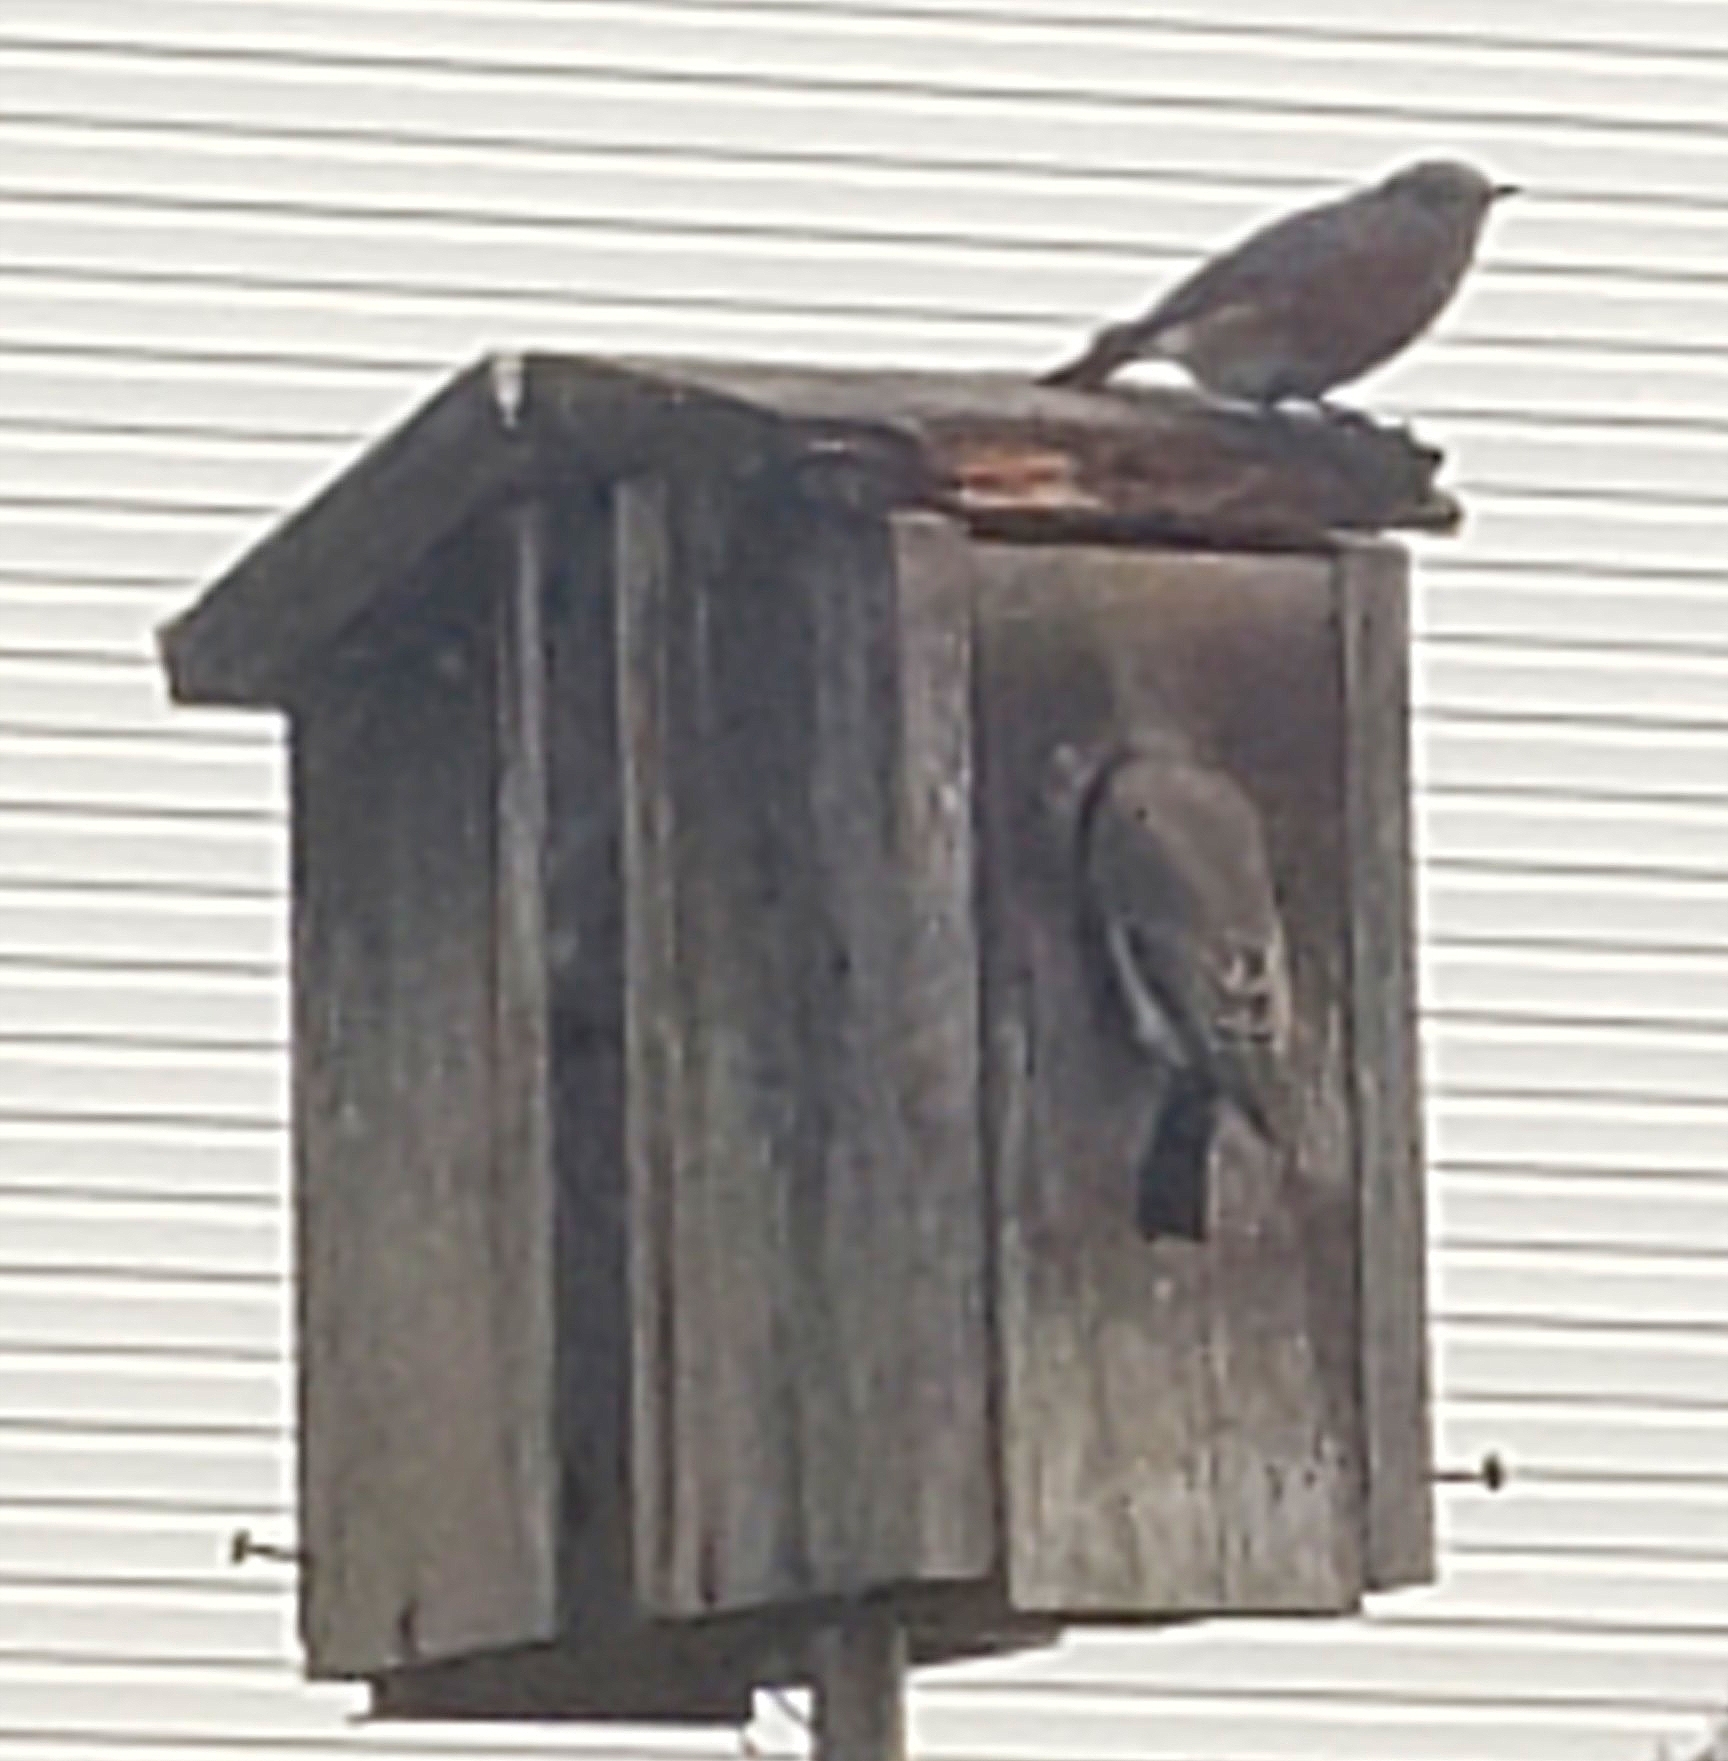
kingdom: Animalia
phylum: Chordata
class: Aves
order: Passeriformes
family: Turdidae
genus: Sialia
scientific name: Sialia sialis
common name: Eastern bluebird
